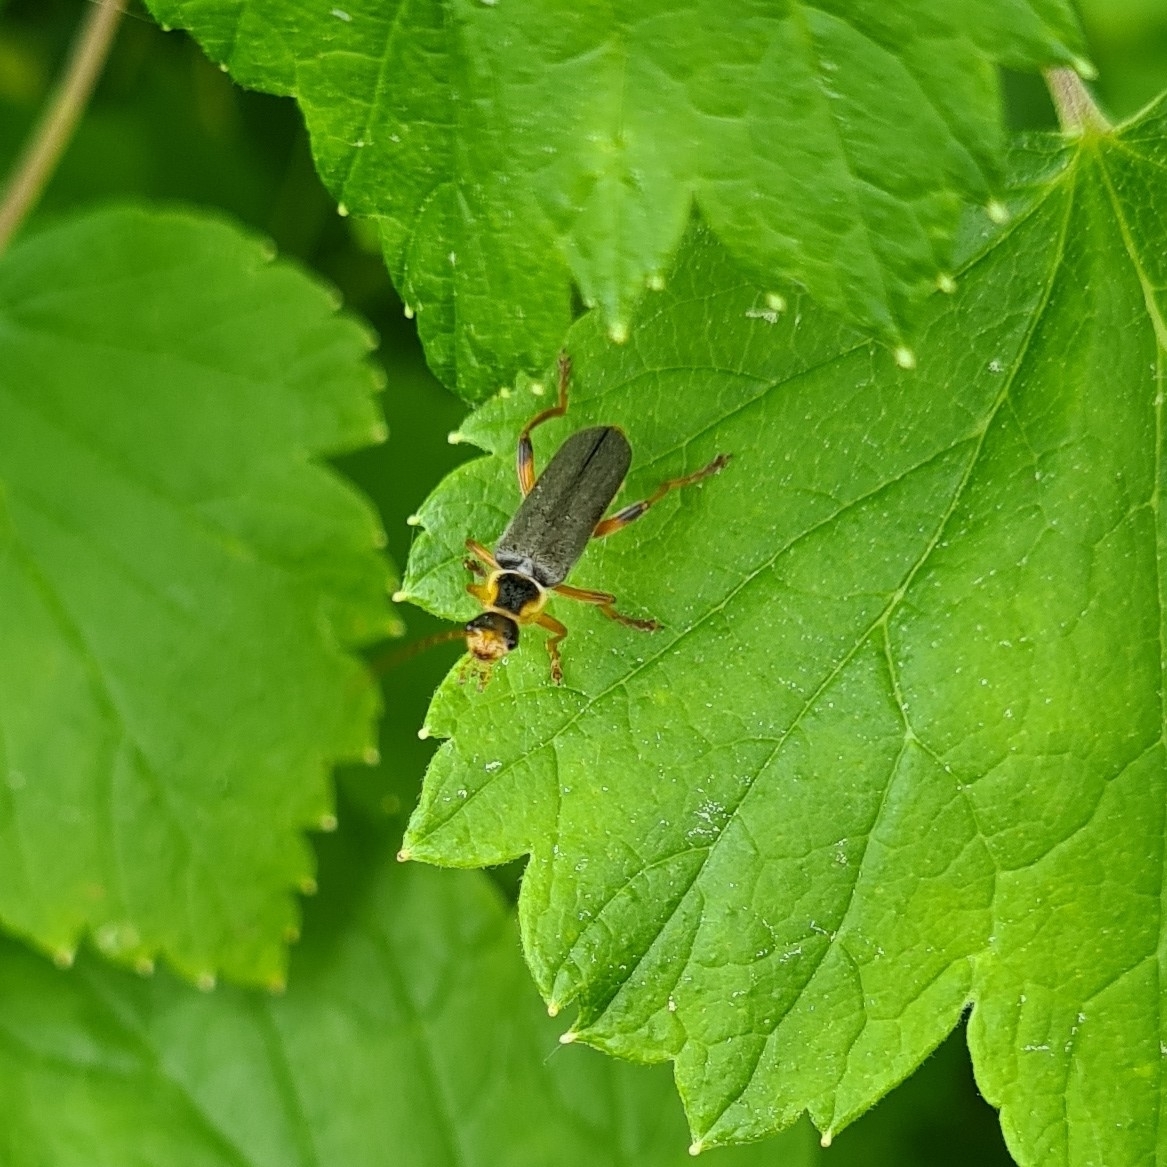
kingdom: Animalia
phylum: Arthropoda
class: Insecta
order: Coleoptera
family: Cantharidae
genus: Cantharis
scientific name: Cantharis nigricans
